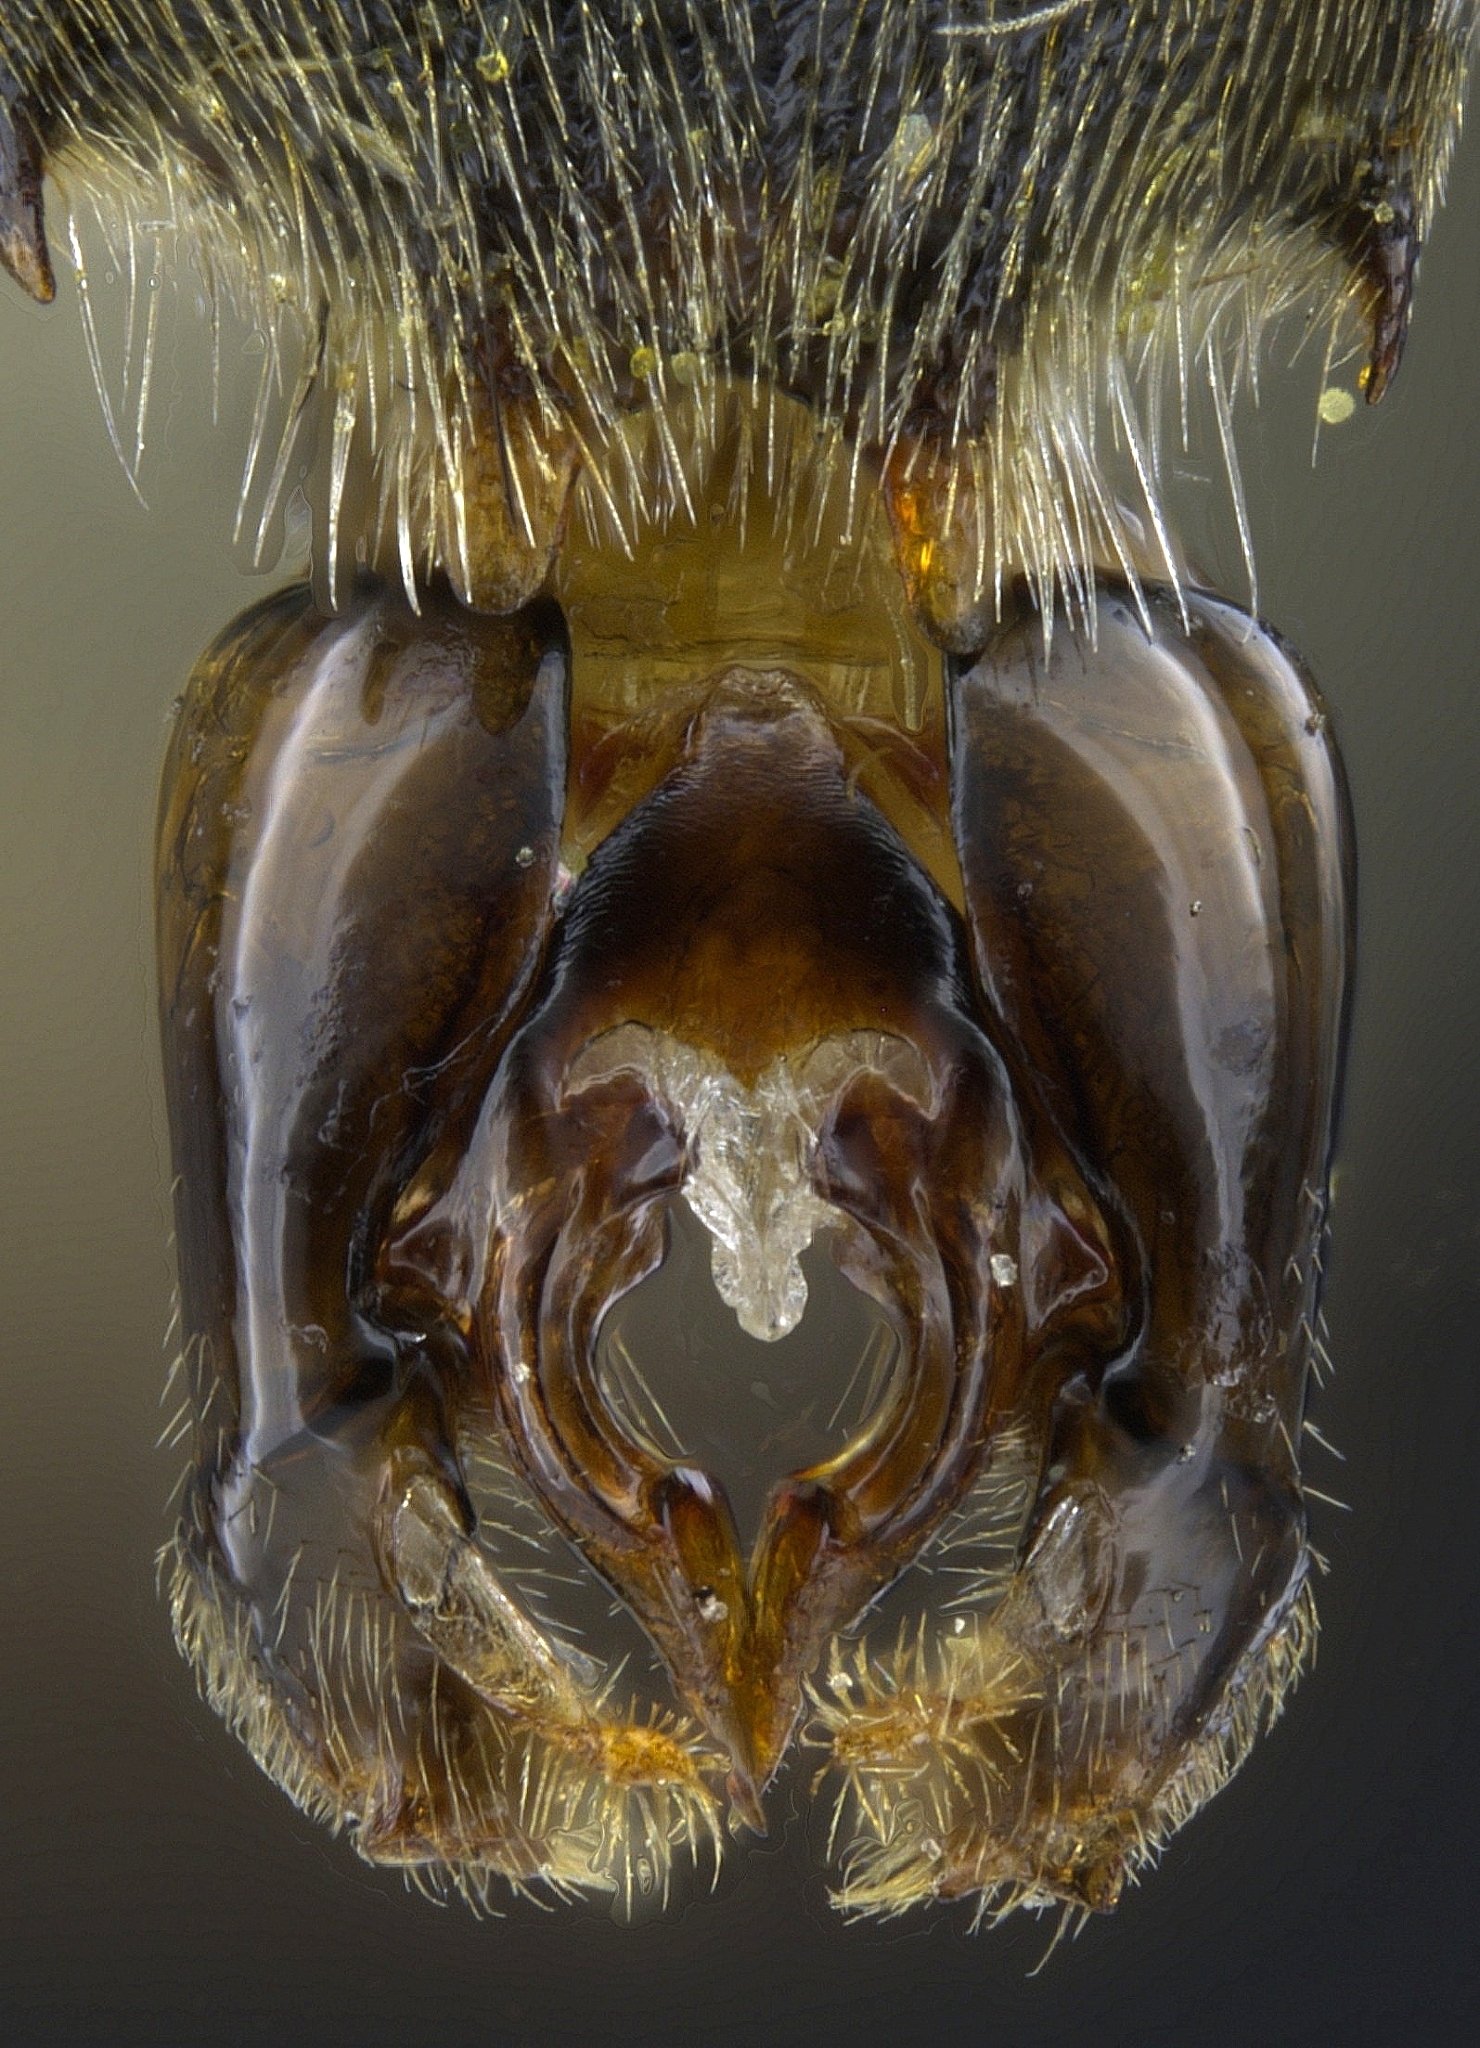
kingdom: Animalia
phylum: Arthropoda
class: Insecta
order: Hymenoptera
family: Apidae
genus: Anthophora
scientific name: Anthophora peritomae
